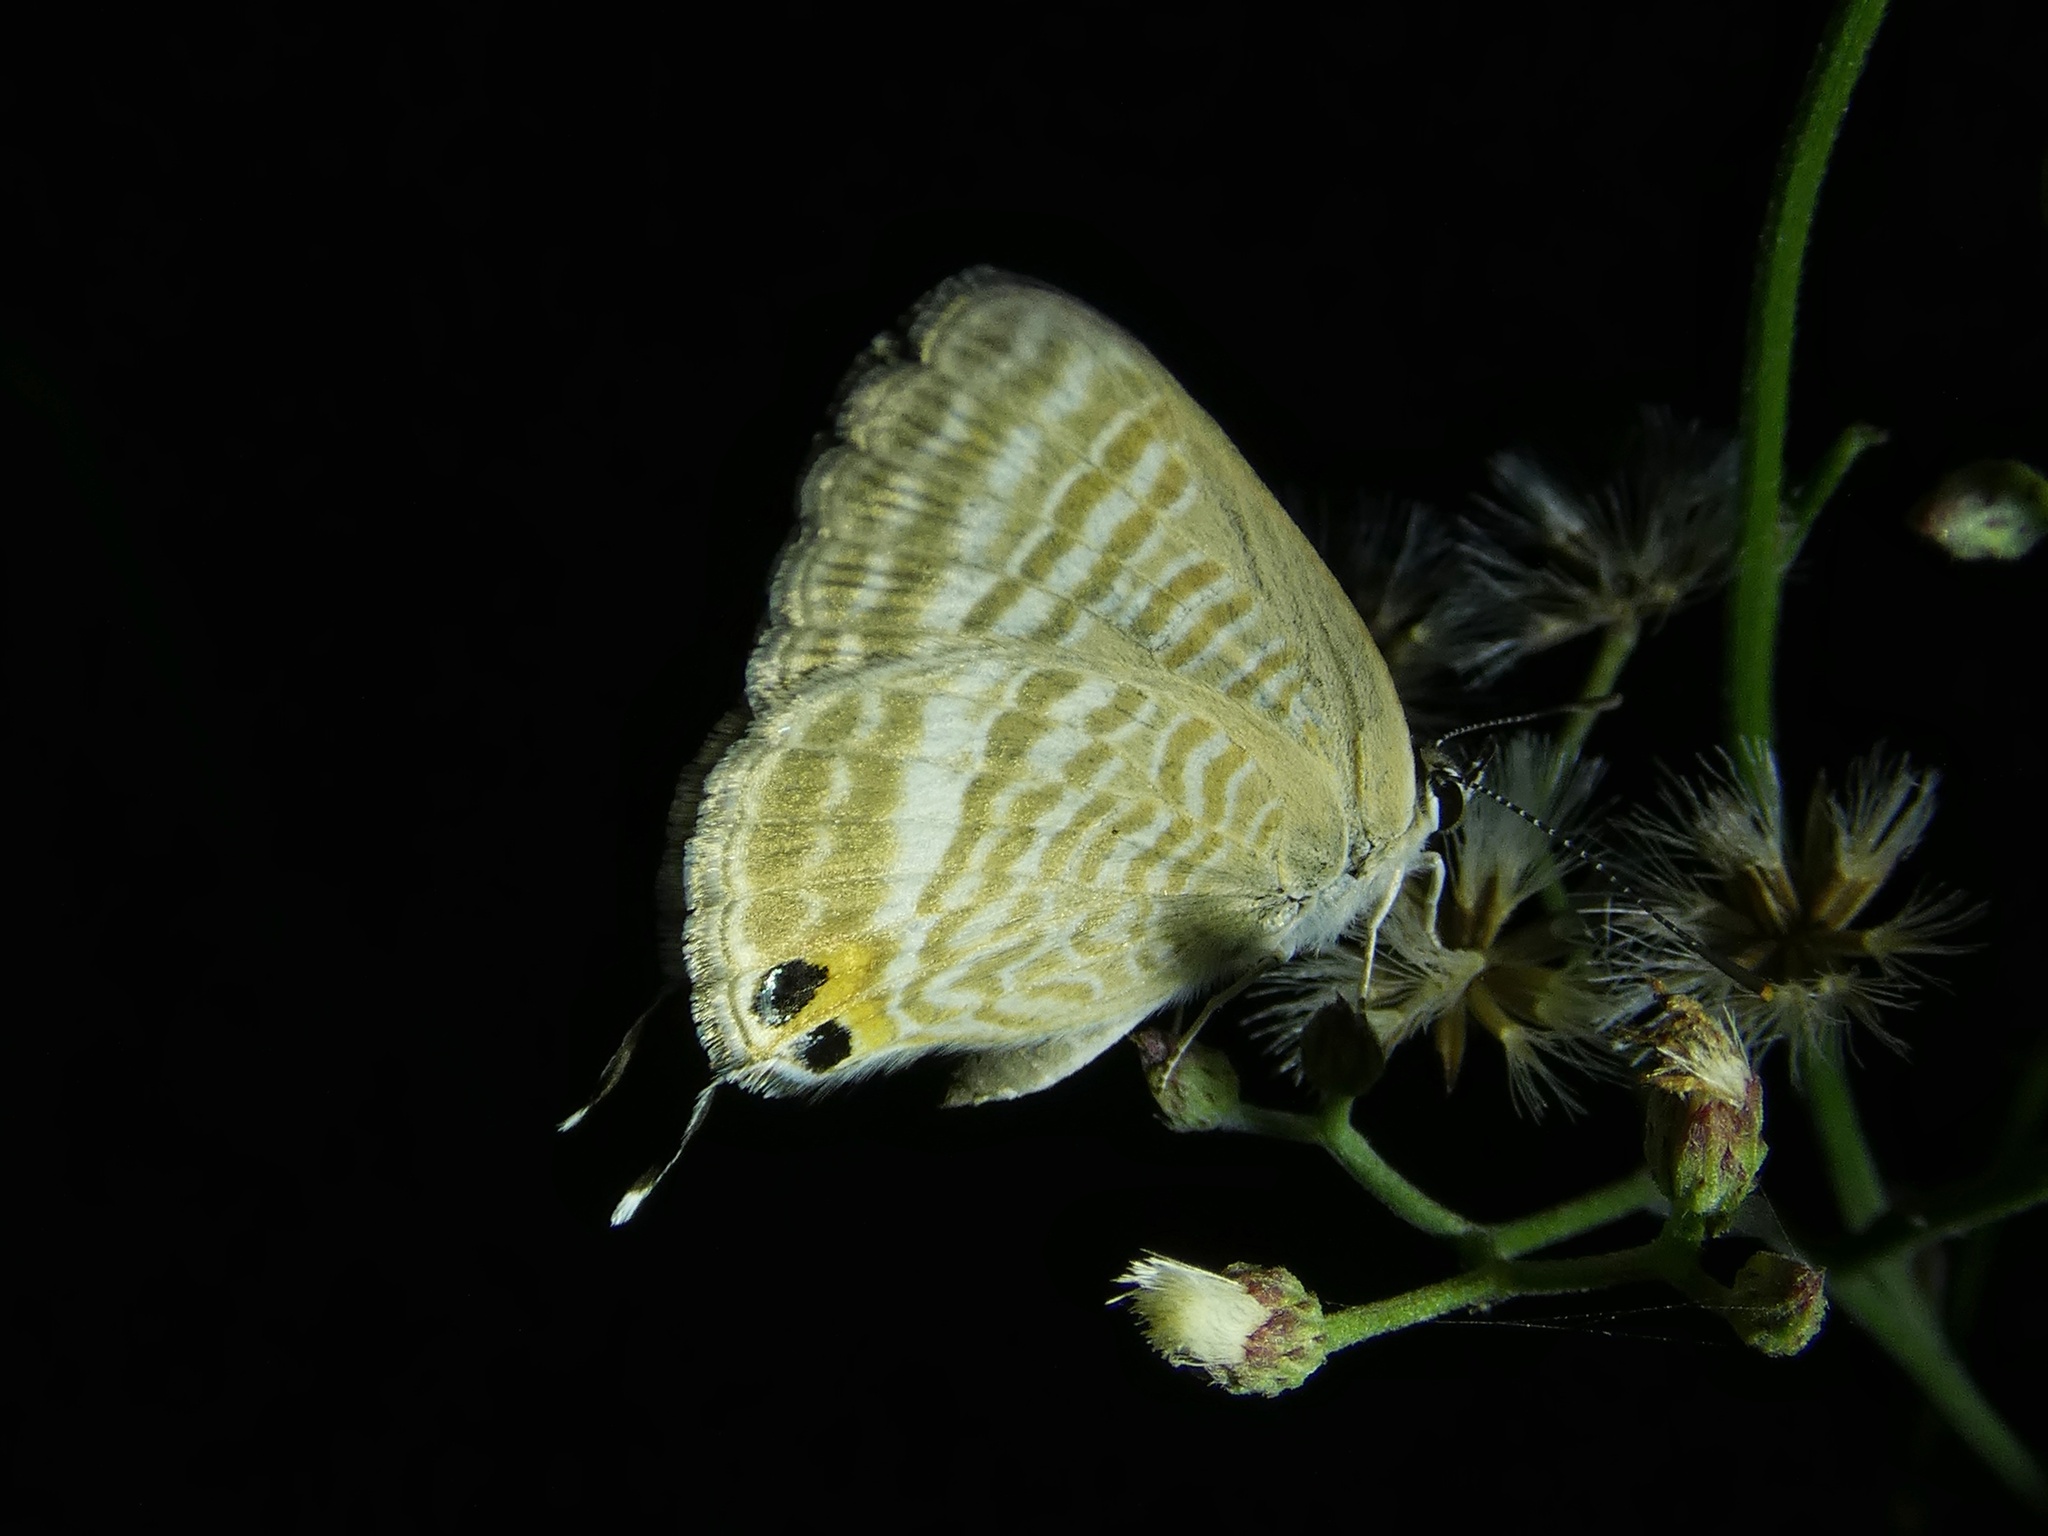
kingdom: Animalia
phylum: Arthropoda
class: Insecta
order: Lepidoptera
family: Lycaenidae
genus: Lampides
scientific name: Lampides boeticus
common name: Long-tailed blue
